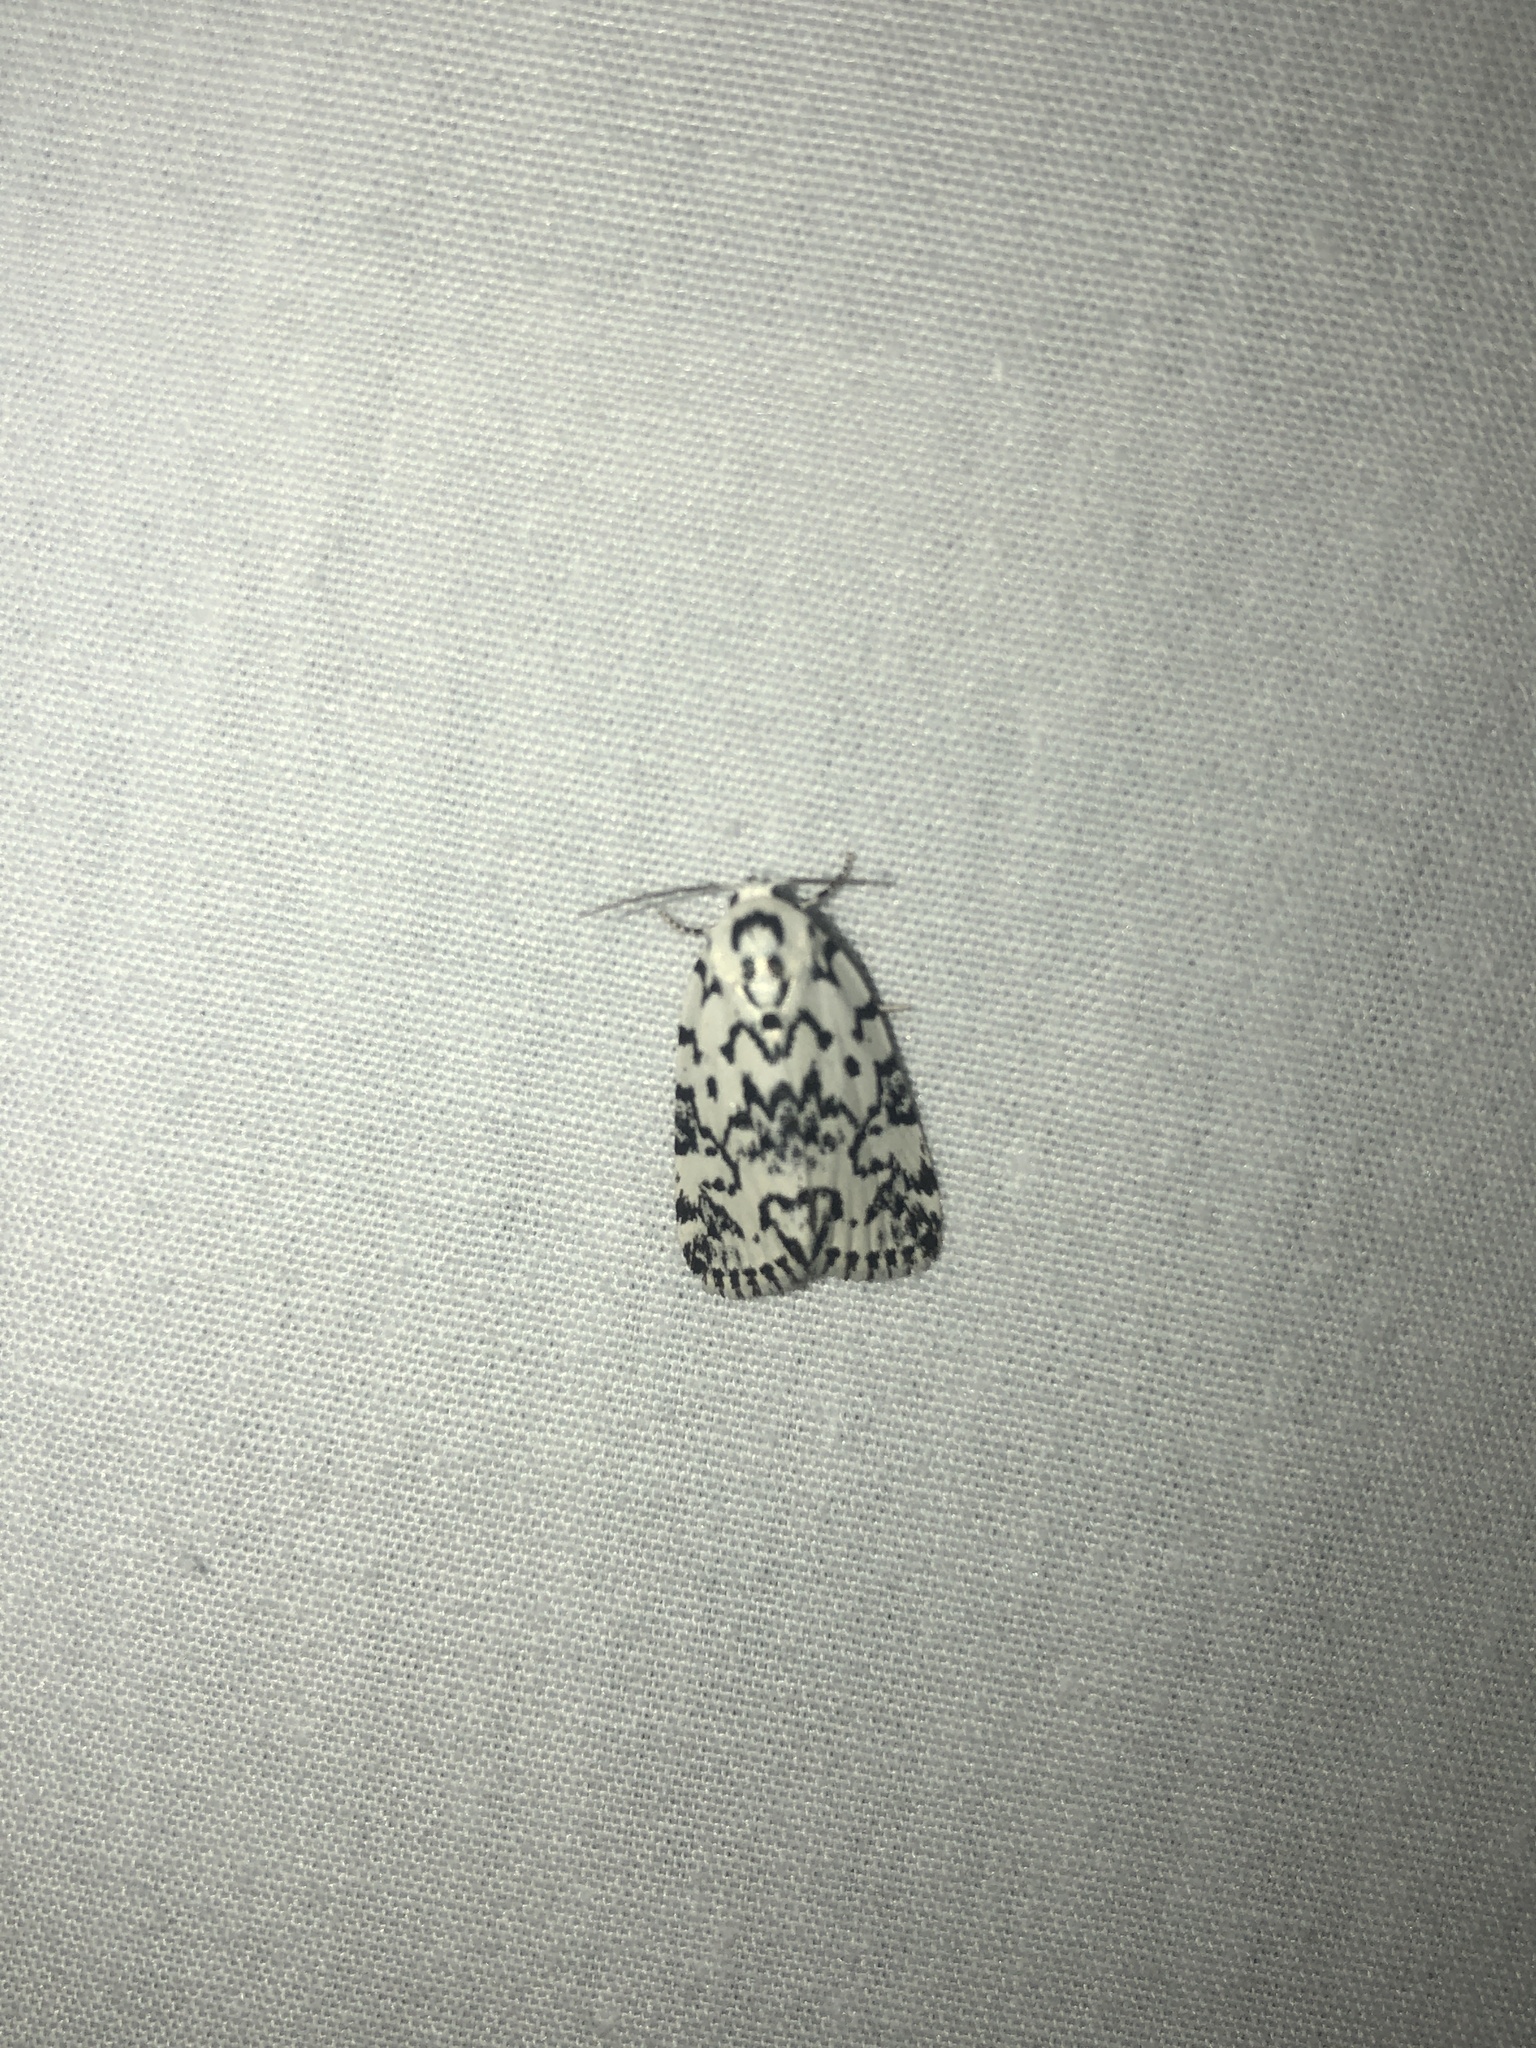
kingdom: Animalia
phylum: Arthropoda
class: Insecta
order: Lepidoptera
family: Noctuidae
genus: Polygrammate
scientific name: Polygrammate hebraeicum
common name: Hebrew moth
